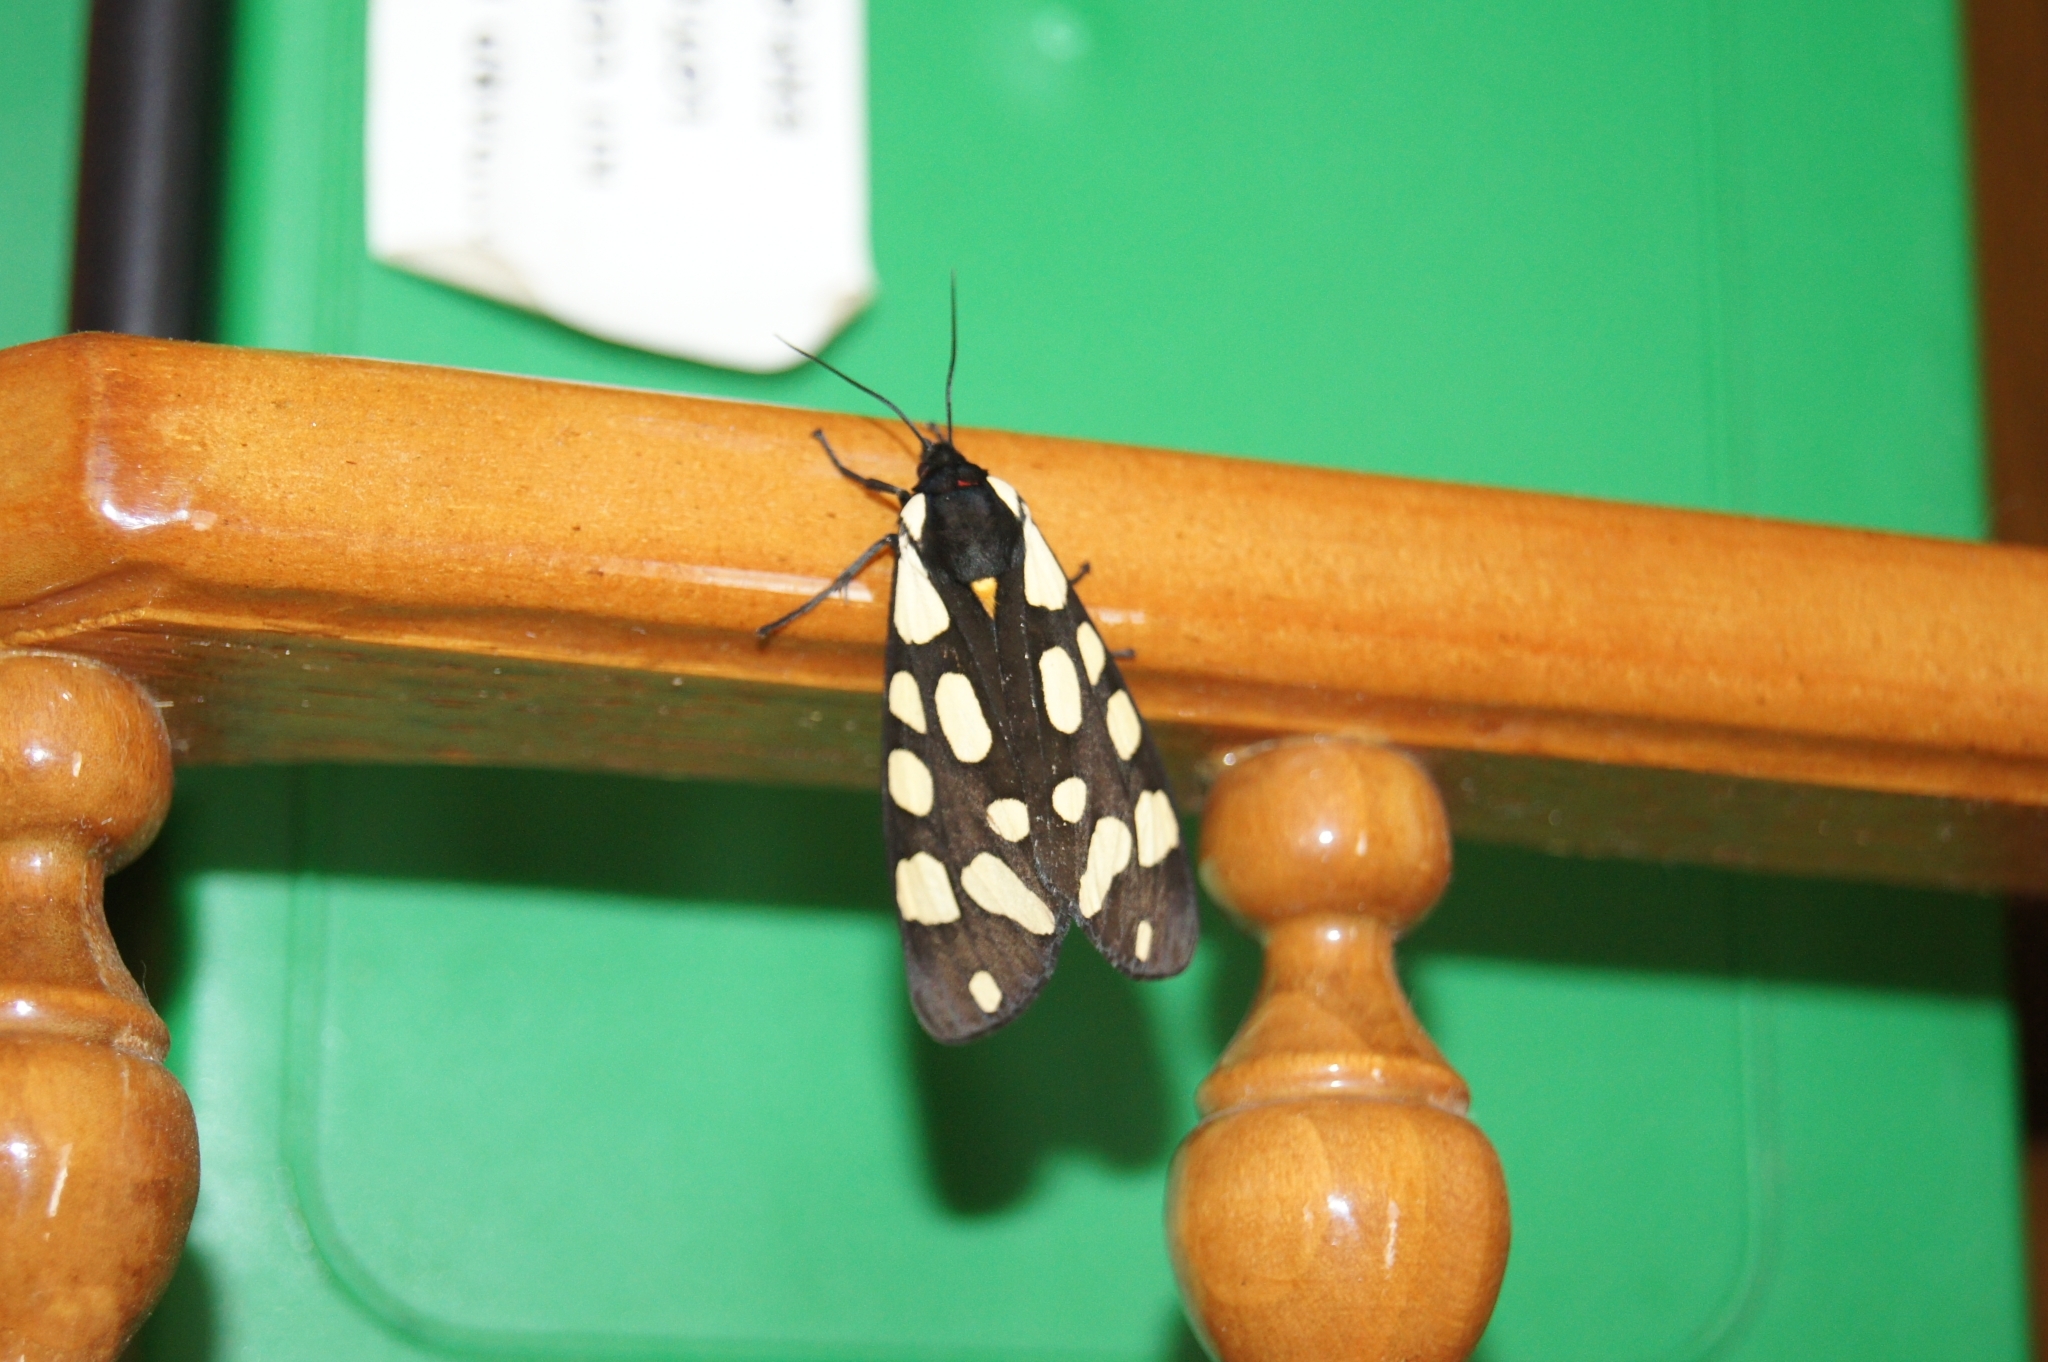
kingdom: Animalia
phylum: Arthropoda
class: Insecta
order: Lepidoptera
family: Erebidae
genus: Epicallia
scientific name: Epicallia villica
